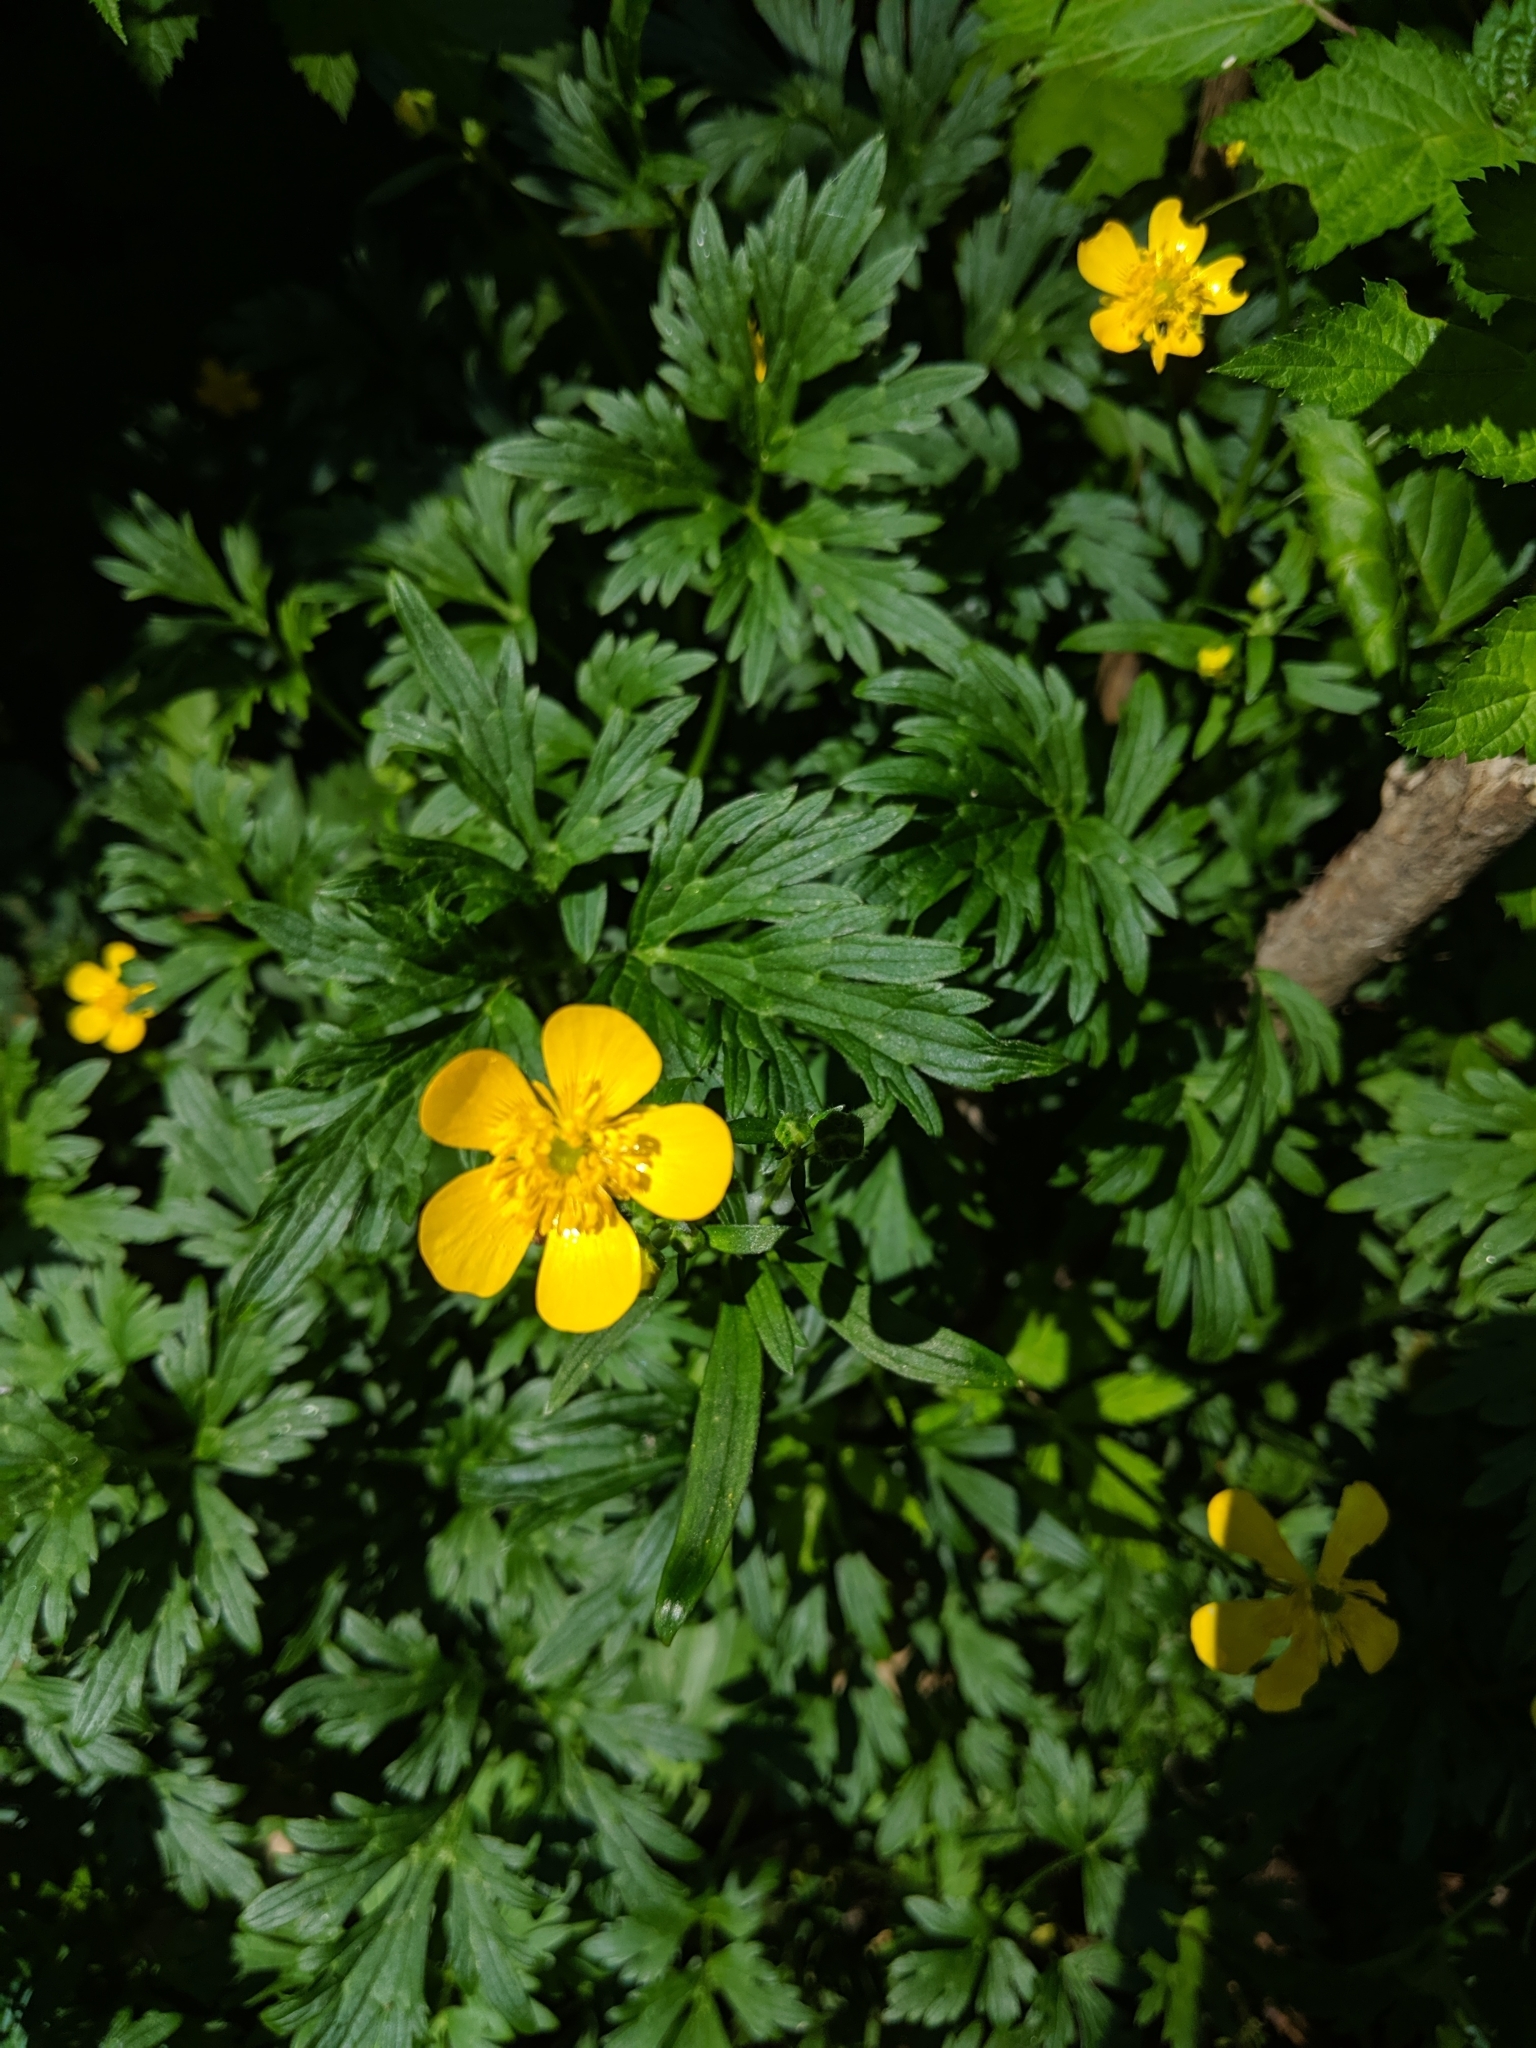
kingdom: Plantae
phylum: Tracheophyta
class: Magnoliopsida
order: Ranunculales
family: Ranunculaceae
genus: Ranunculus
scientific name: Ranunculus repens
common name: Creeping buttercup
